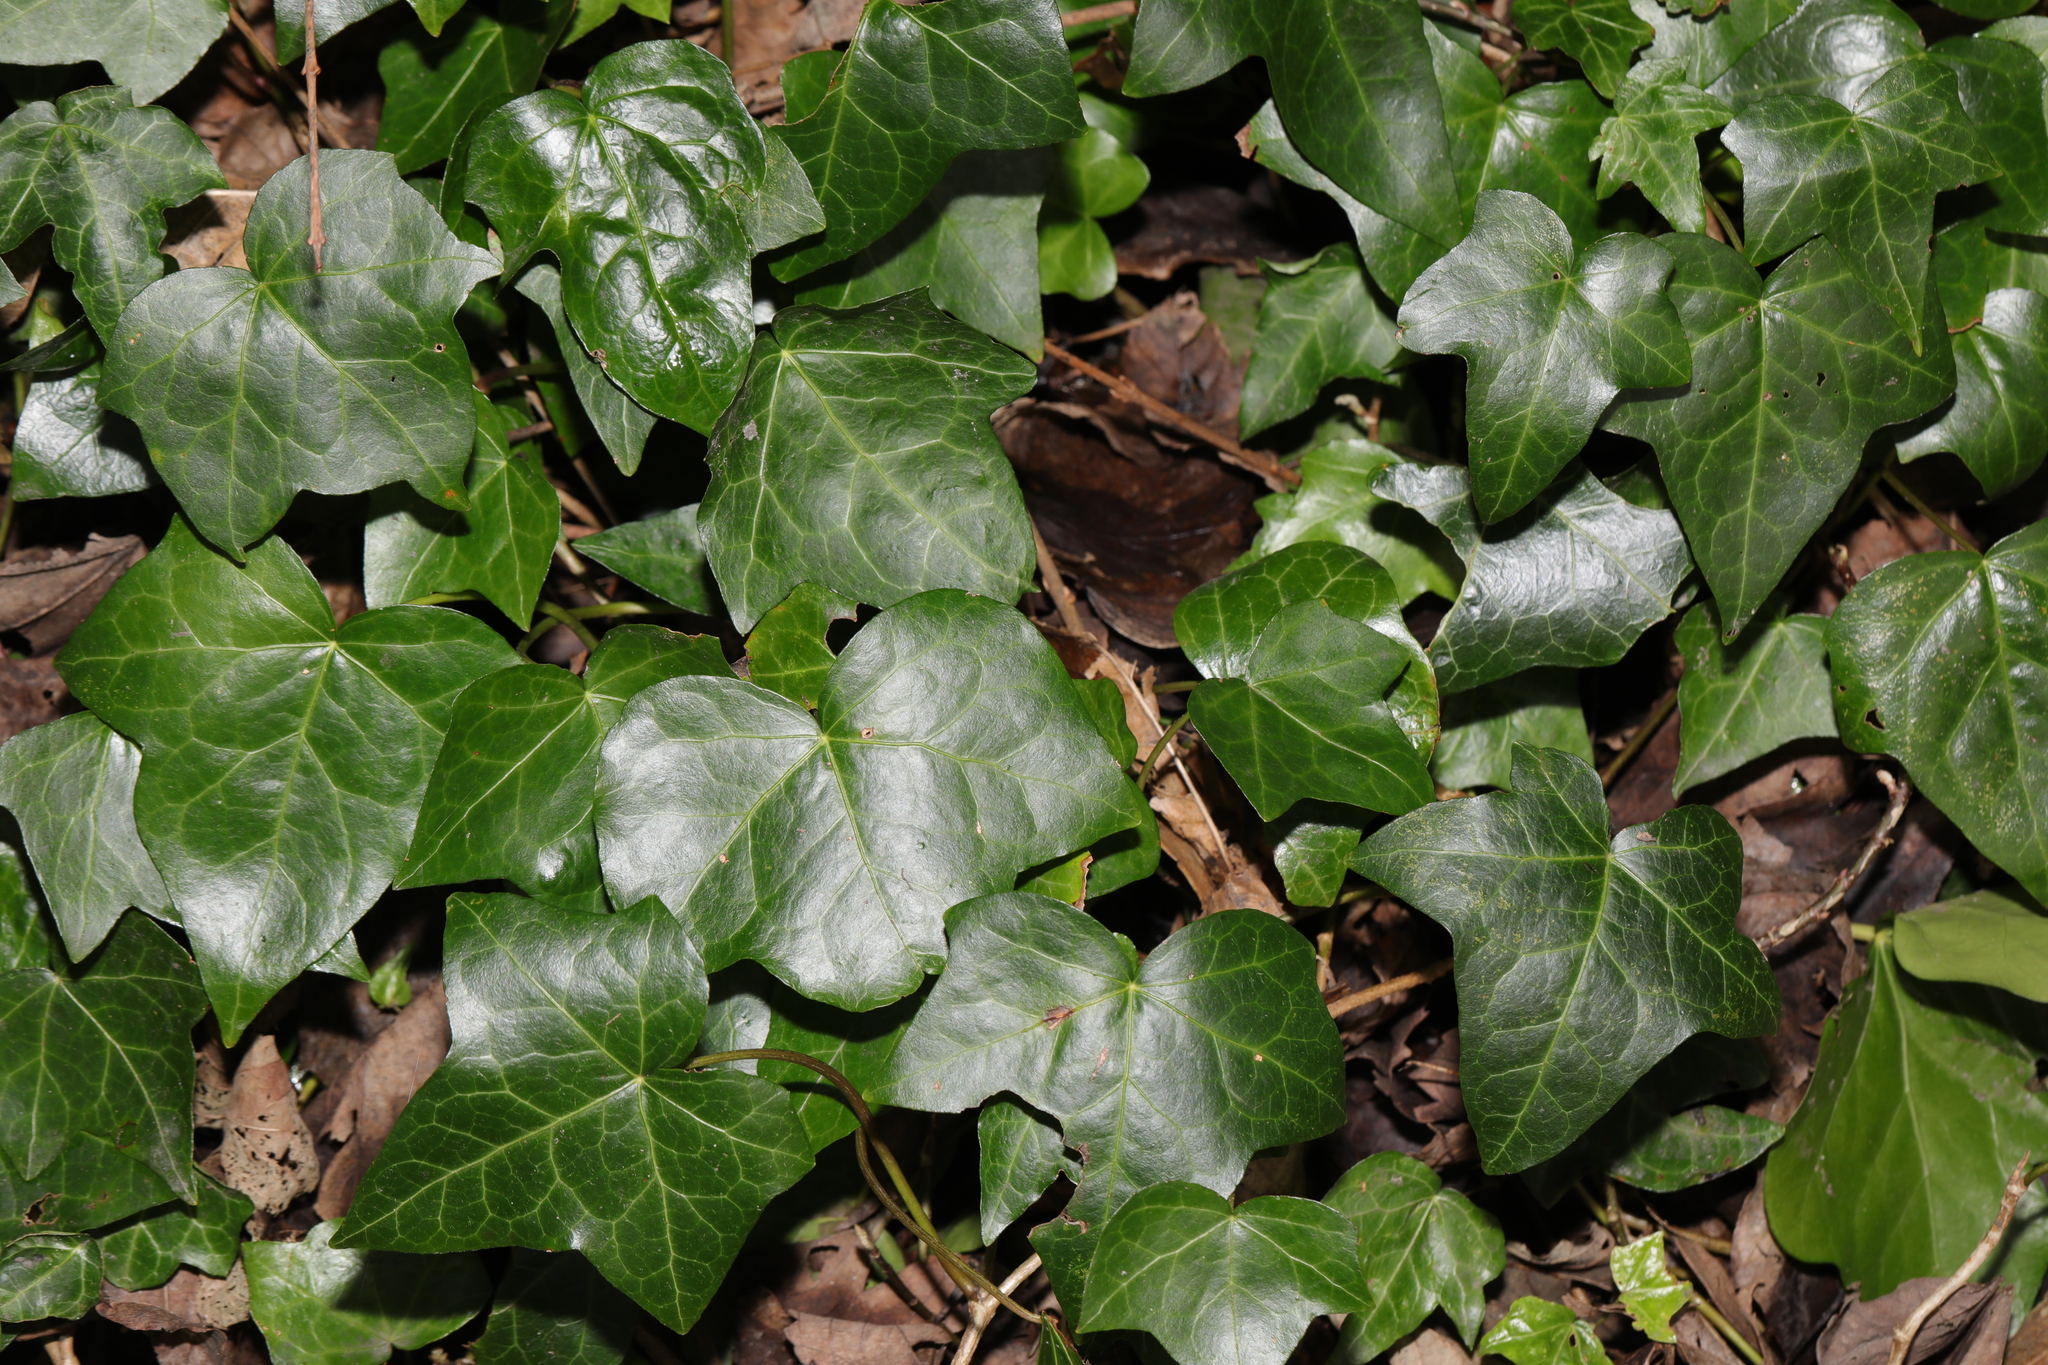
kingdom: Plantae
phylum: Tracheophyta
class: Magnoliopsida
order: Apiales
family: Araliaceae
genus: Hedera
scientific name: Hedera helix
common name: Ivy
